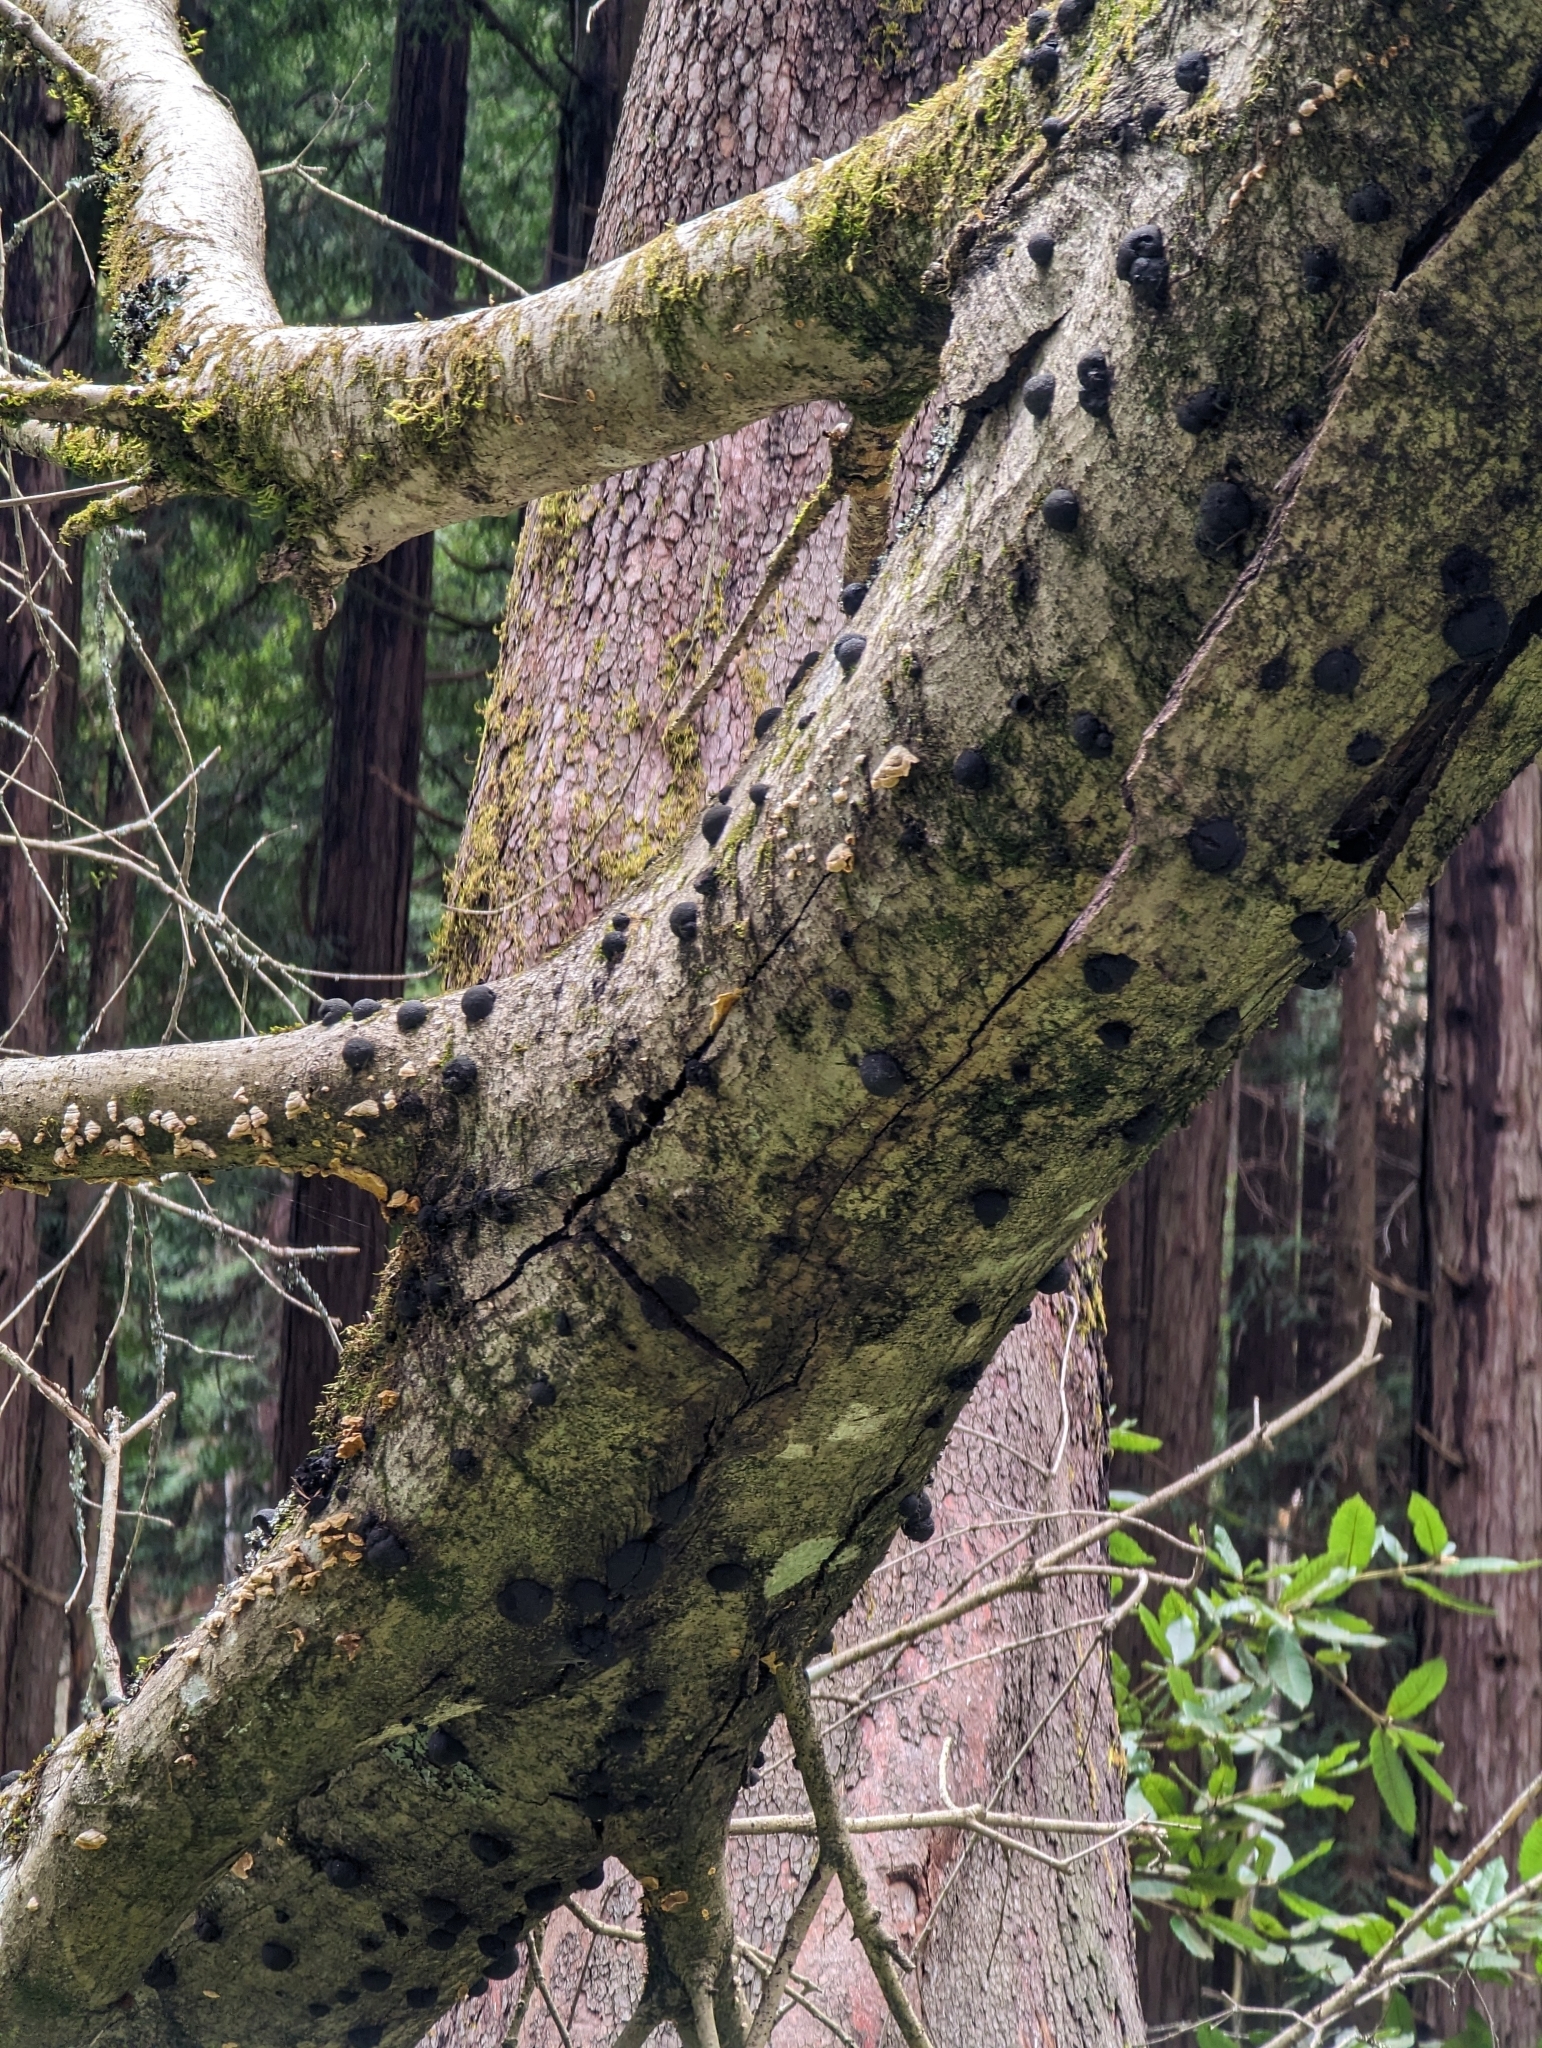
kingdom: Fungi
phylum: Ascomycota
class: Sordariomycetes
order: Xylariales
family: Hypoxylaceae
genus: Annulohypoxylon
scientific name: Annulohypoxylon thouarsianum
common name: Cramp balls
